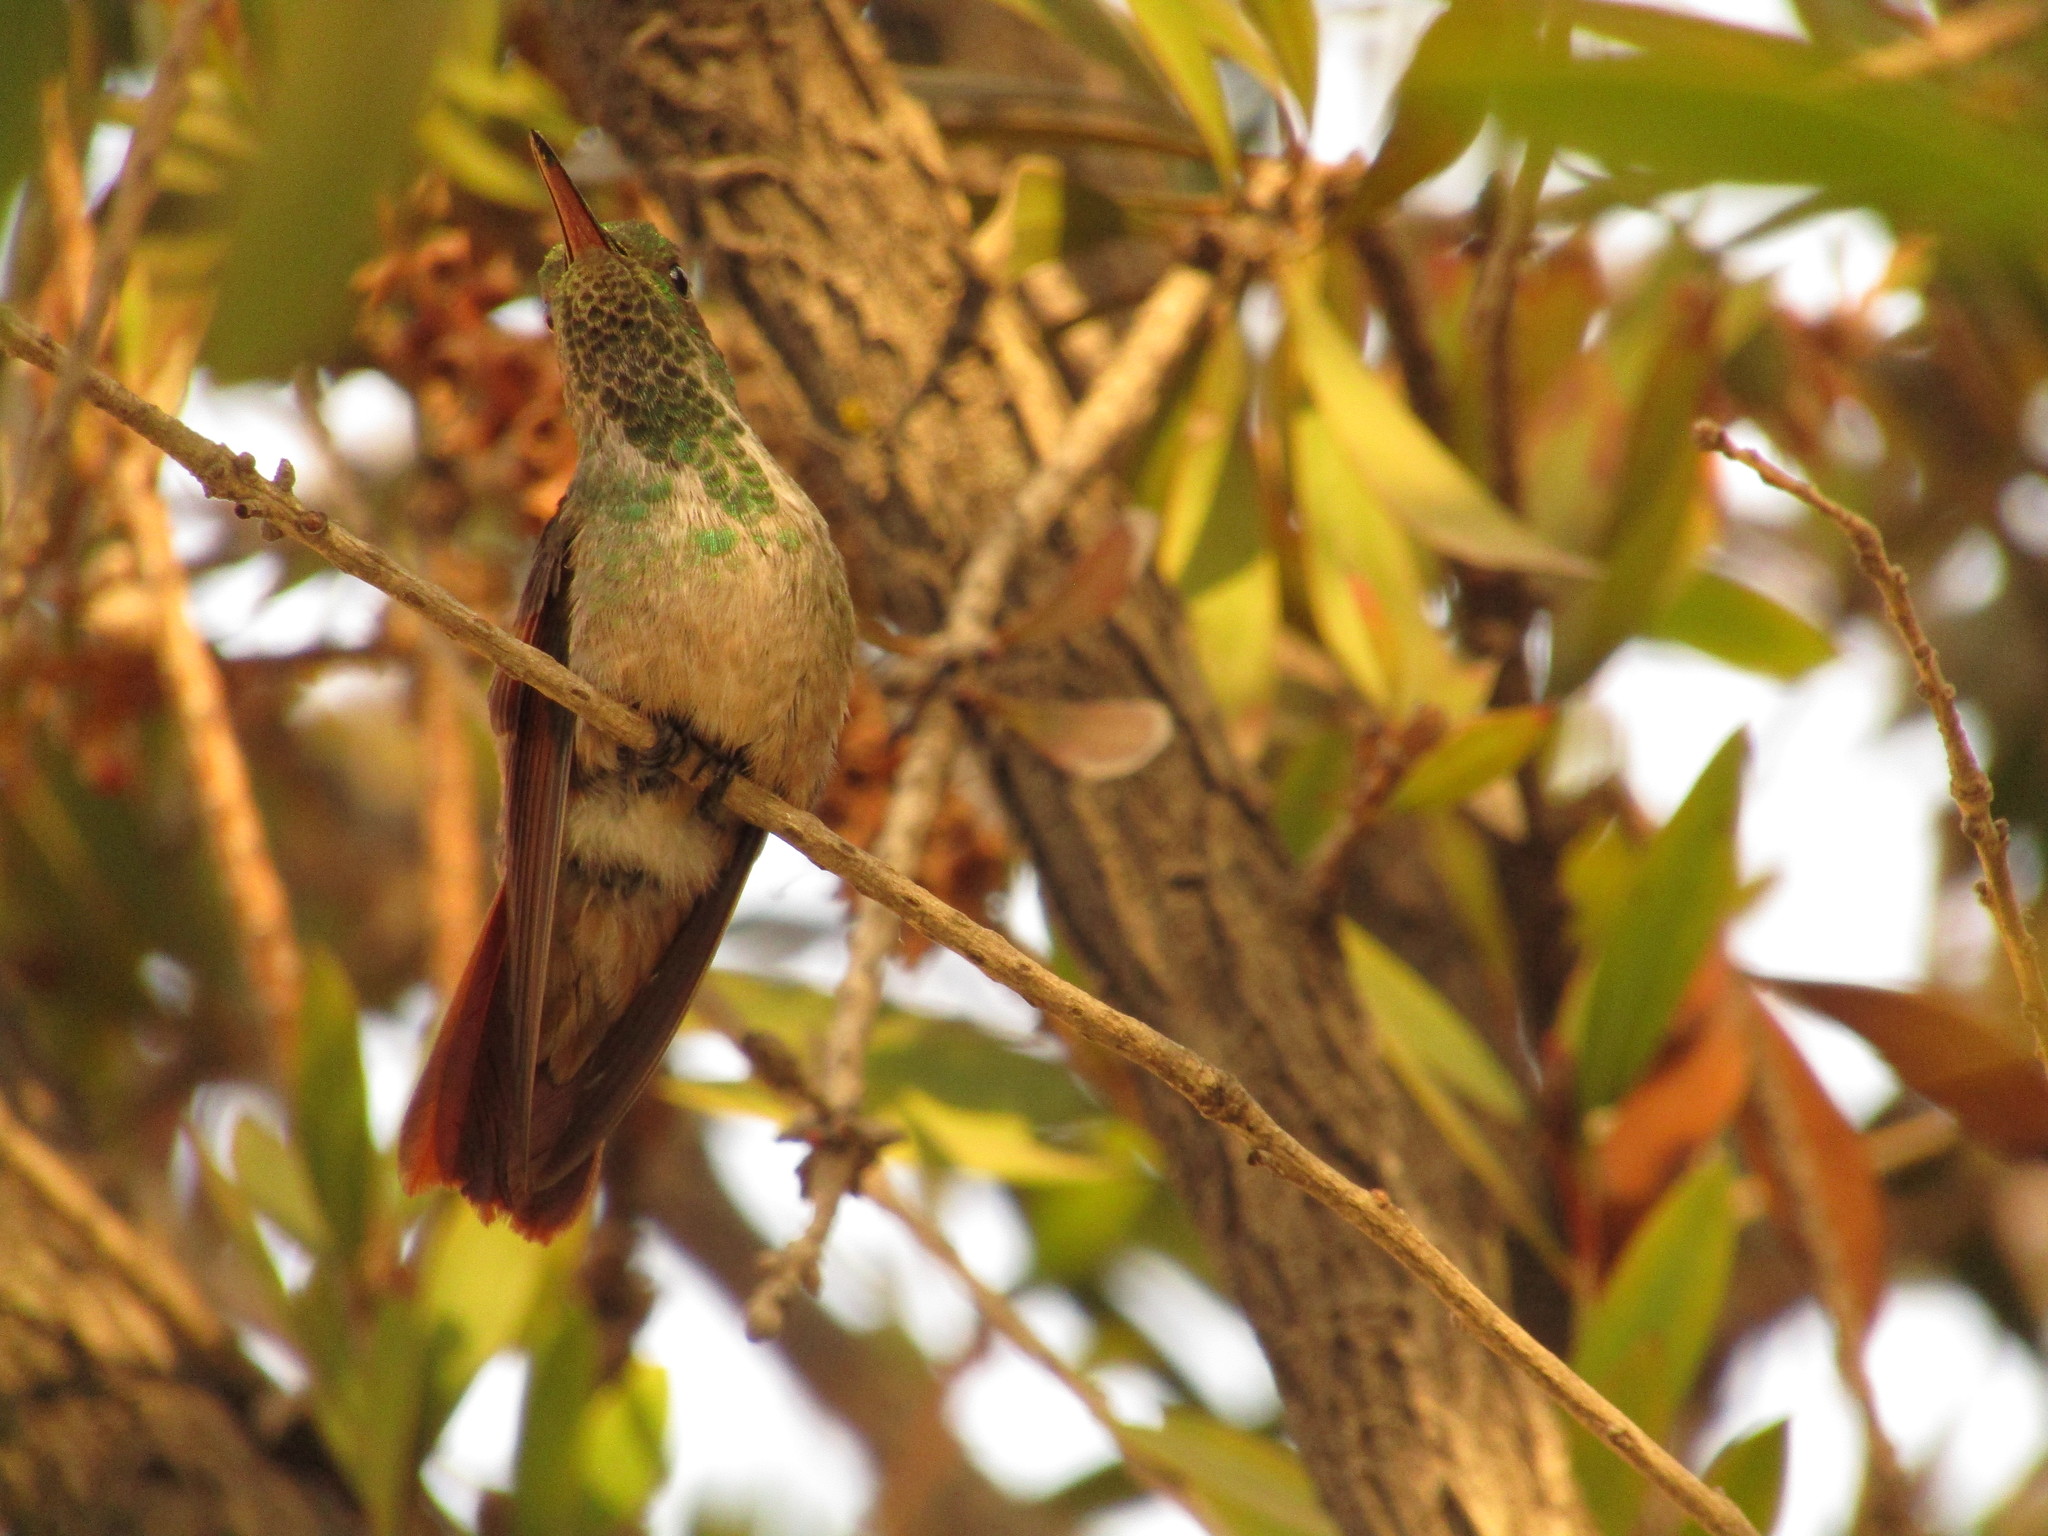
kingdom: Animalia
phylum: Chordata
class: Aves
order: Apodiformes
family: Trochilidae
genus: Saucerottia
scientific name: Saucerottia beryllina
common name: Berylline hummingbird
